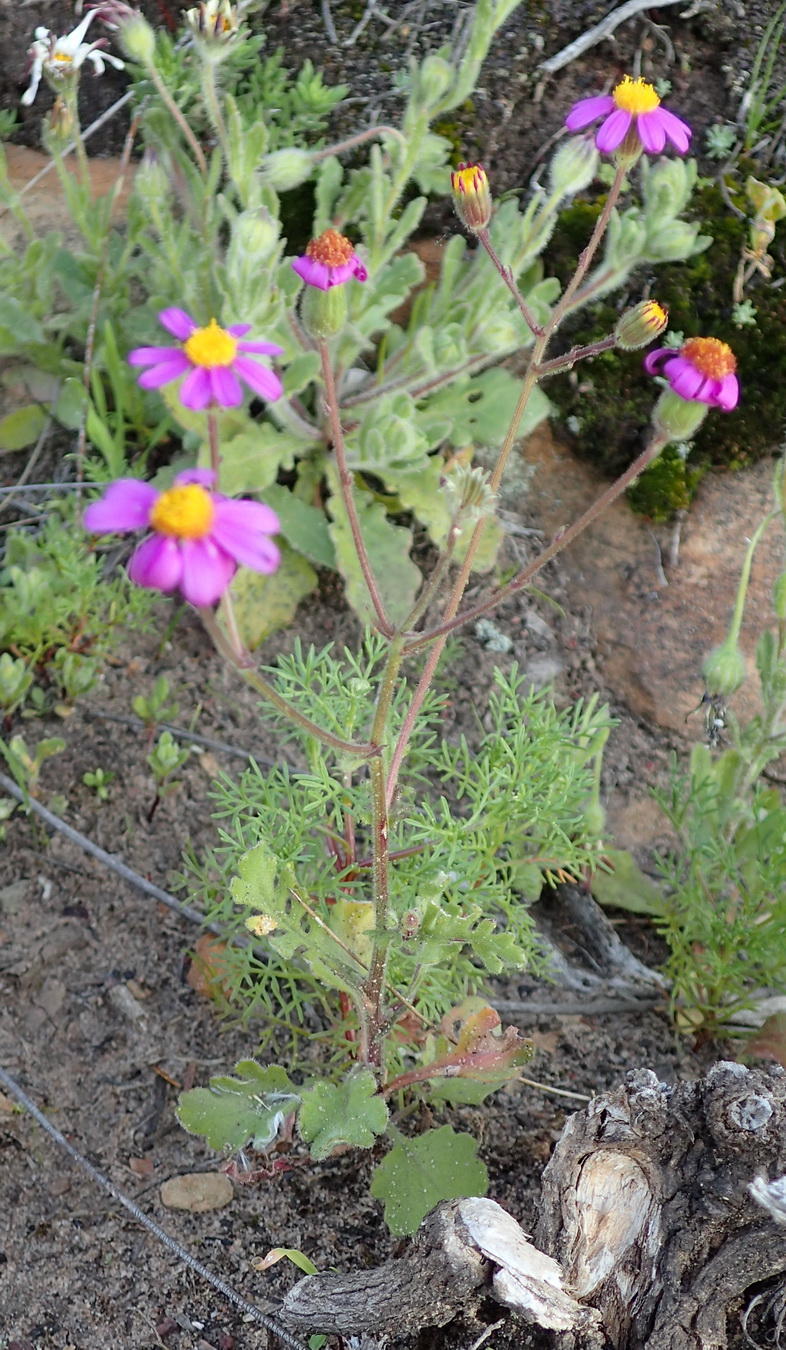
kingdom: Plantae
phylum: Tracheophyta
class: Magnoliopsida
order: Asterales
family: Asteraceae
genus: Senecio
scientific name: Senecio arenarius
